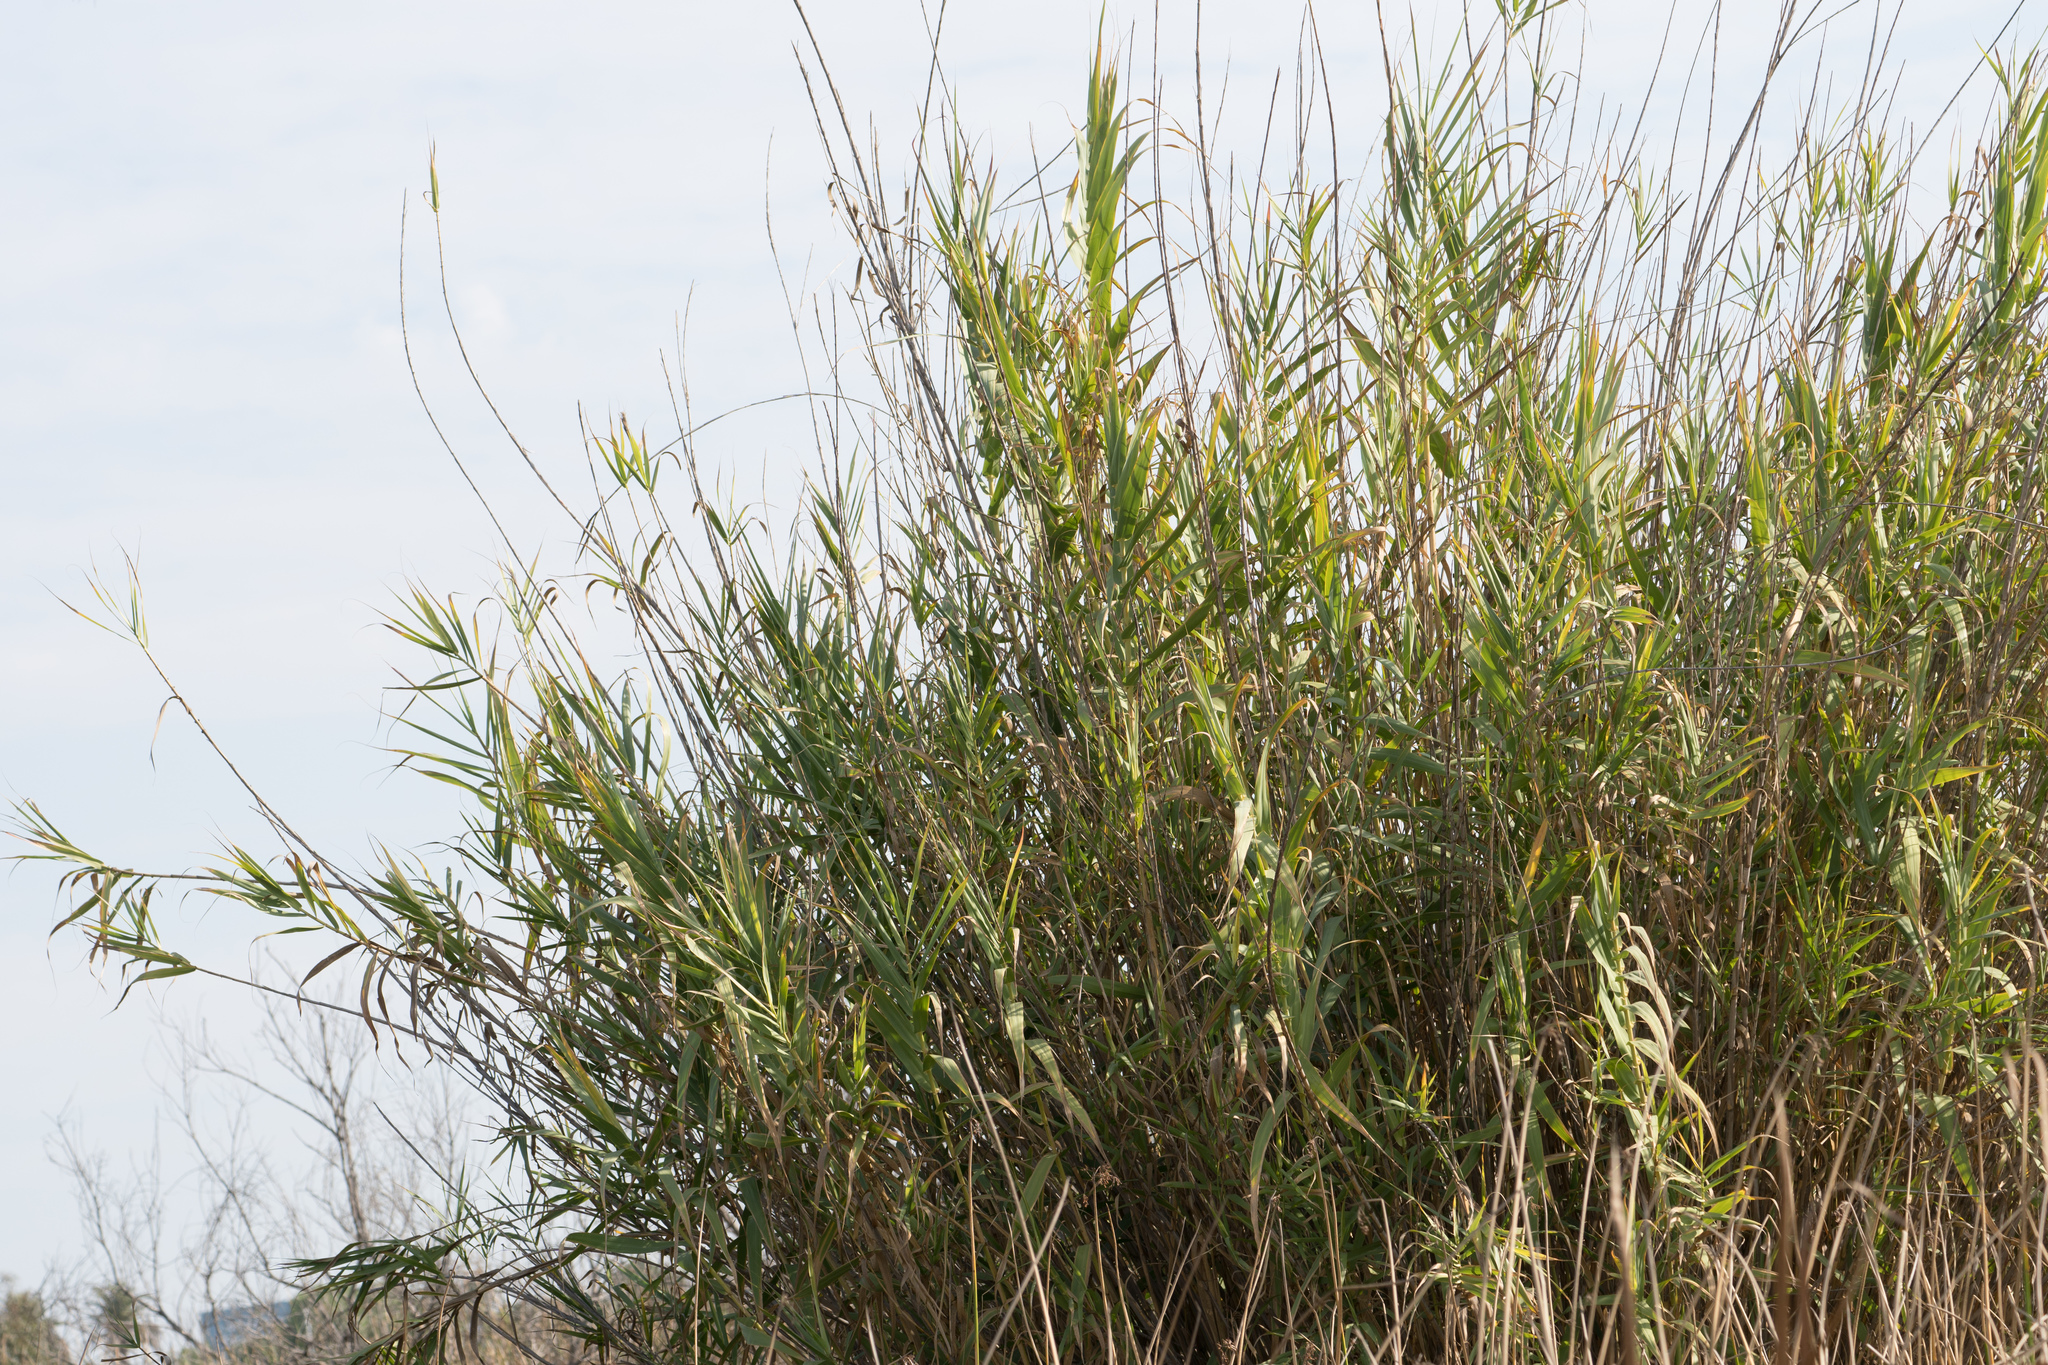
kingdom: Plantae
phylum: Tracheophyta
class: Liliopsida
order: Poales
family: Poaceae
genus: Arundo
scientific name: Arundo donax
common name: Giant reed
